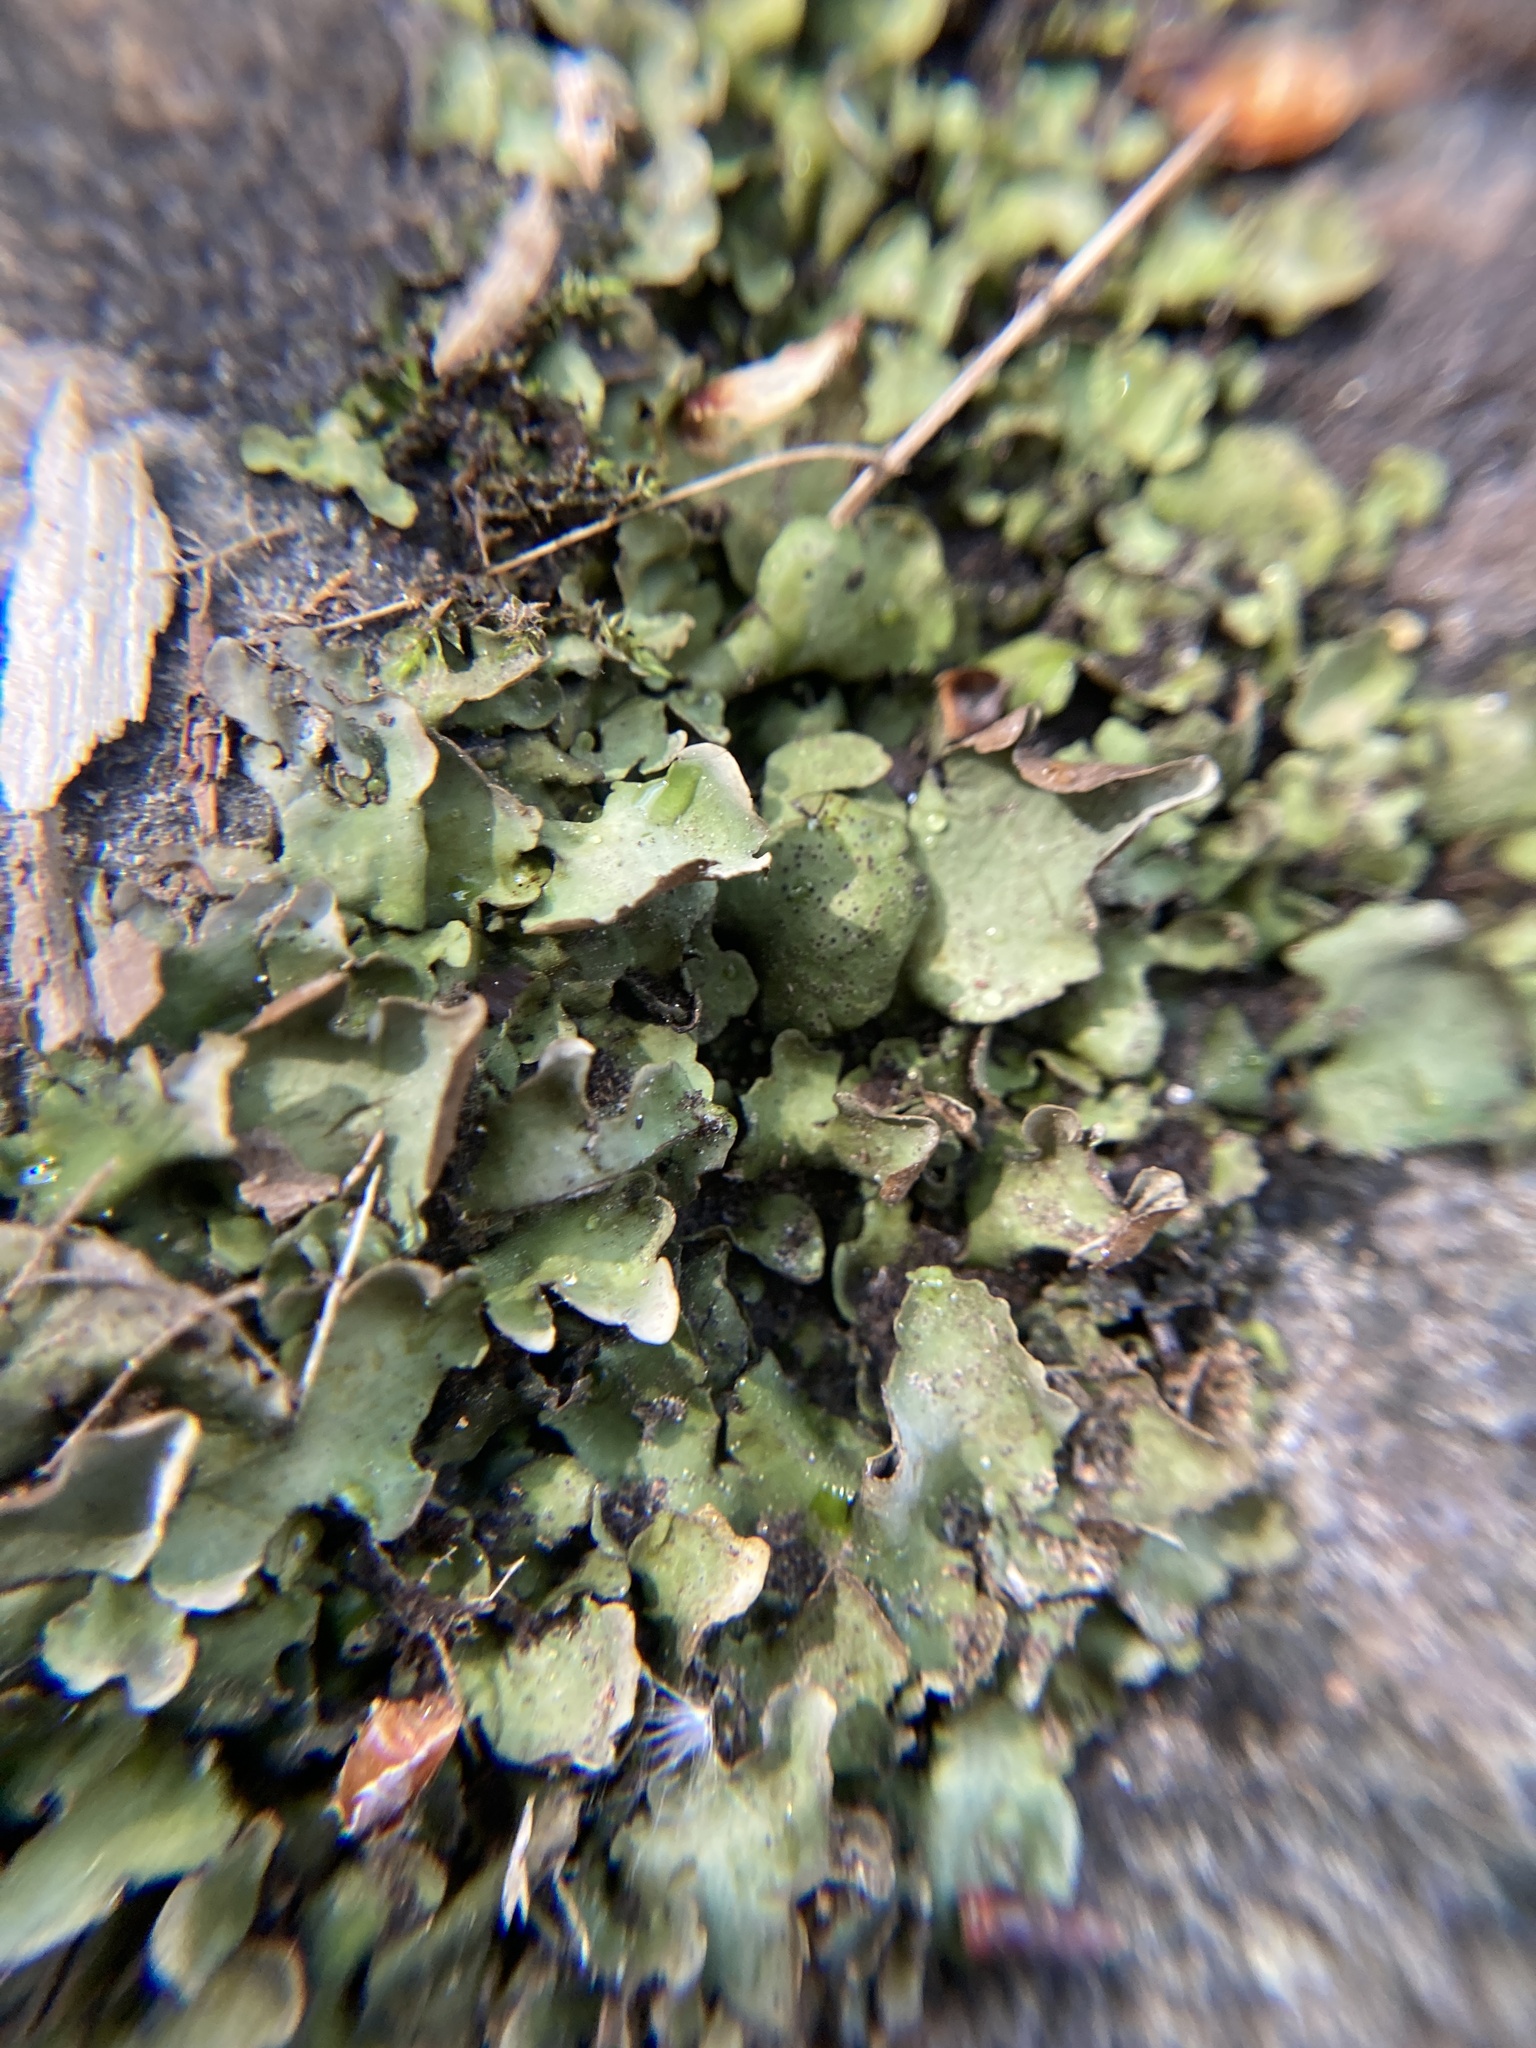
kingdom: Fungi
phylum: Ascomycota
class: Eurotiomycetes
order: Verrucariales
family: Verrucariaceae
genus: Dermatocarpon
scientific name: Dermatocarpon luridum
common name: Brook stippleback lichen
